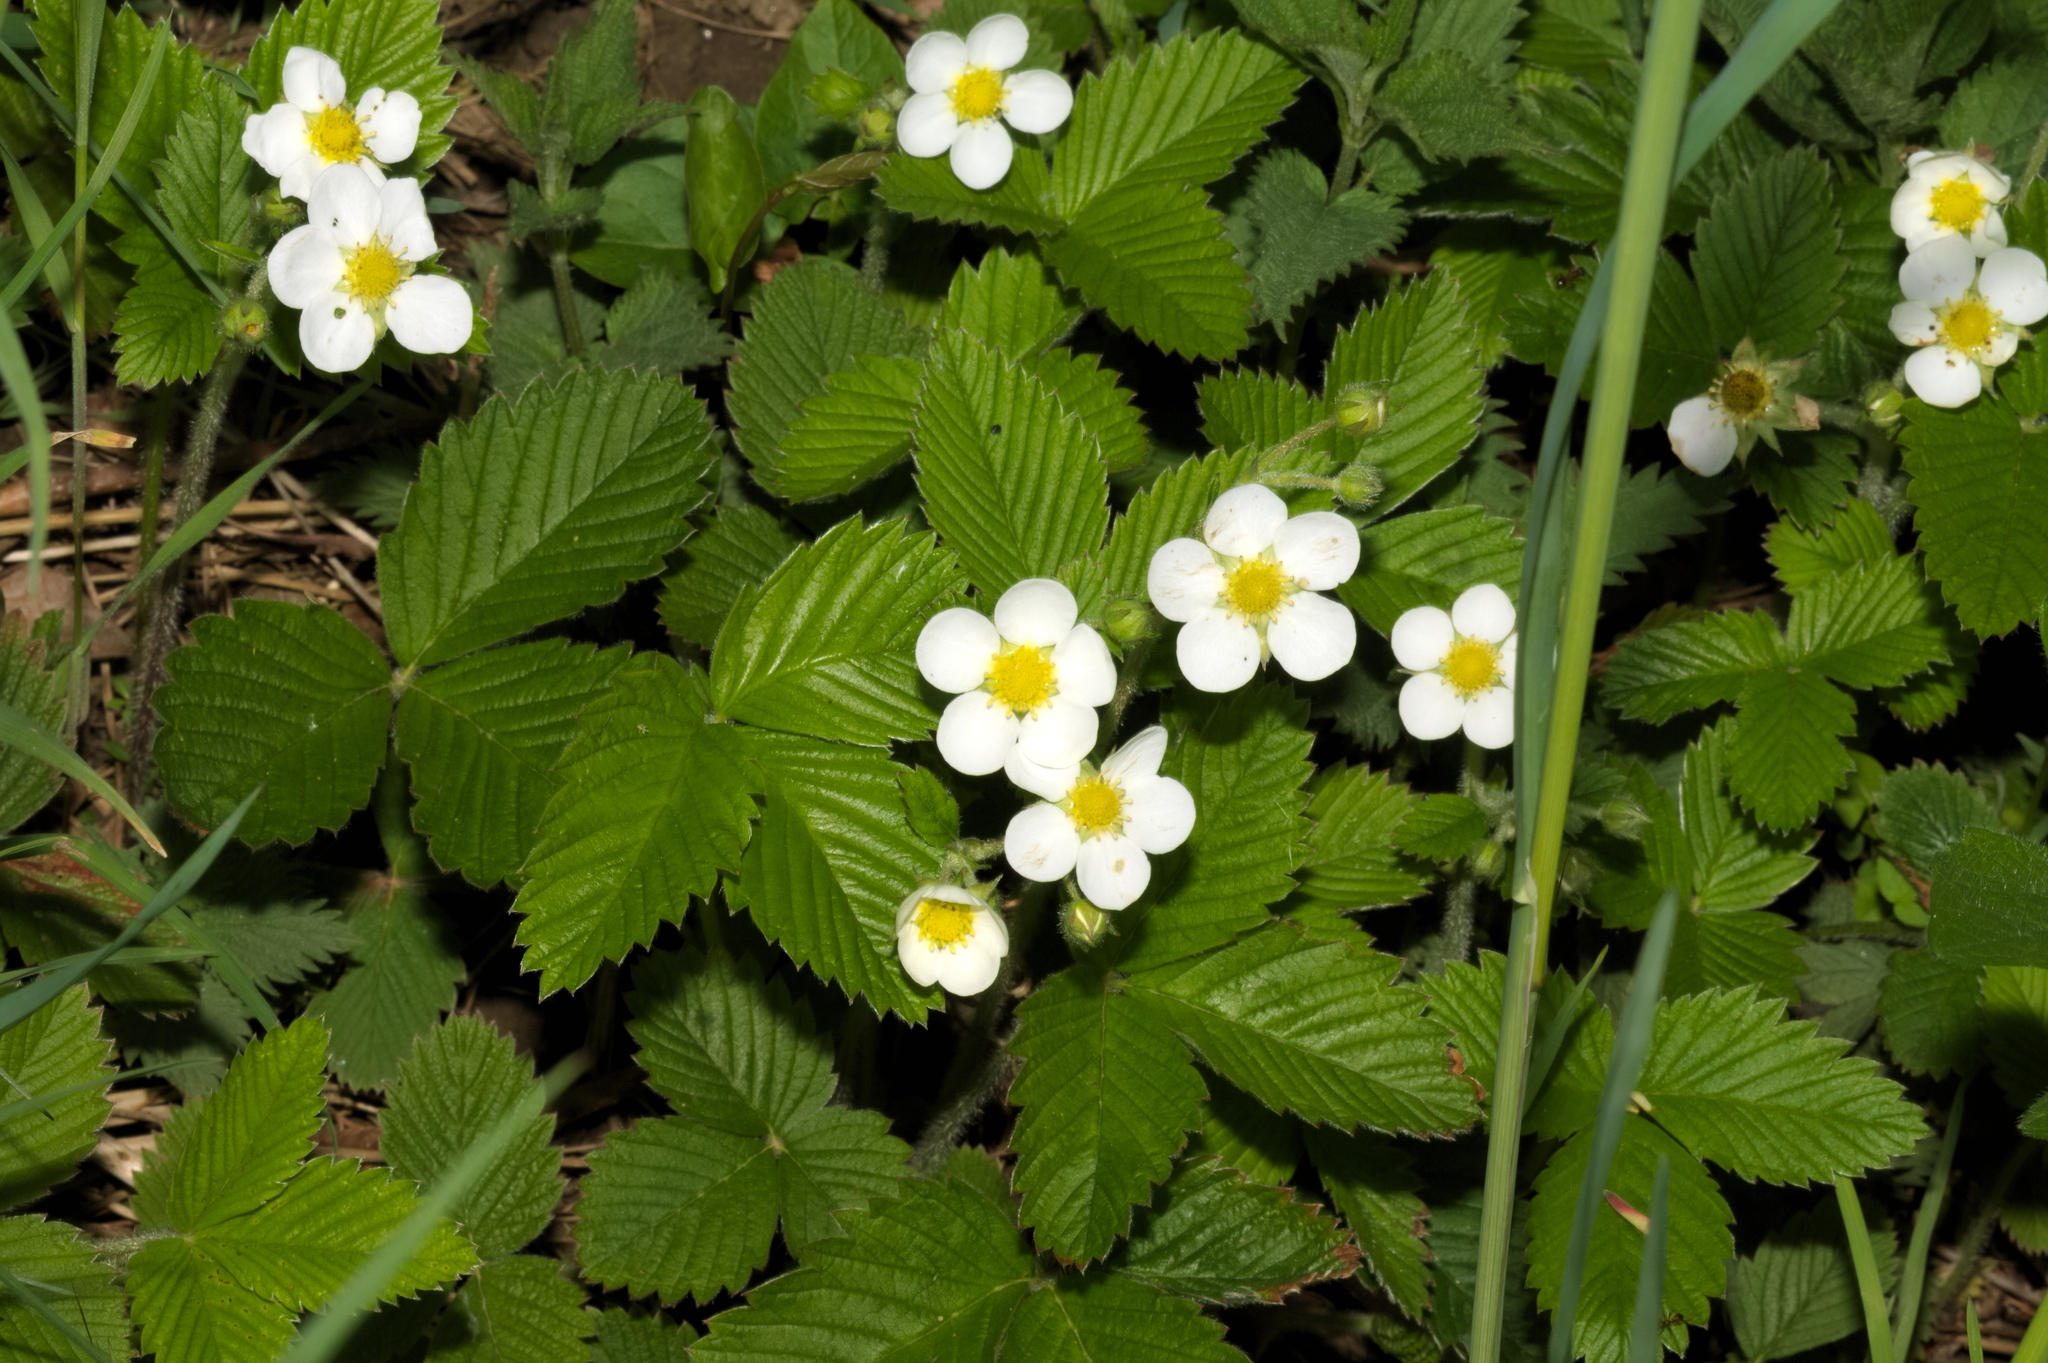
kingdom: Plantae
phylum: Tracheophyta
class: Magnoliopsida
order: Rosales
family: Rosaceae
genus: Fragaria
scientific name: Fragaria vesca
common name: Wild strawberry
